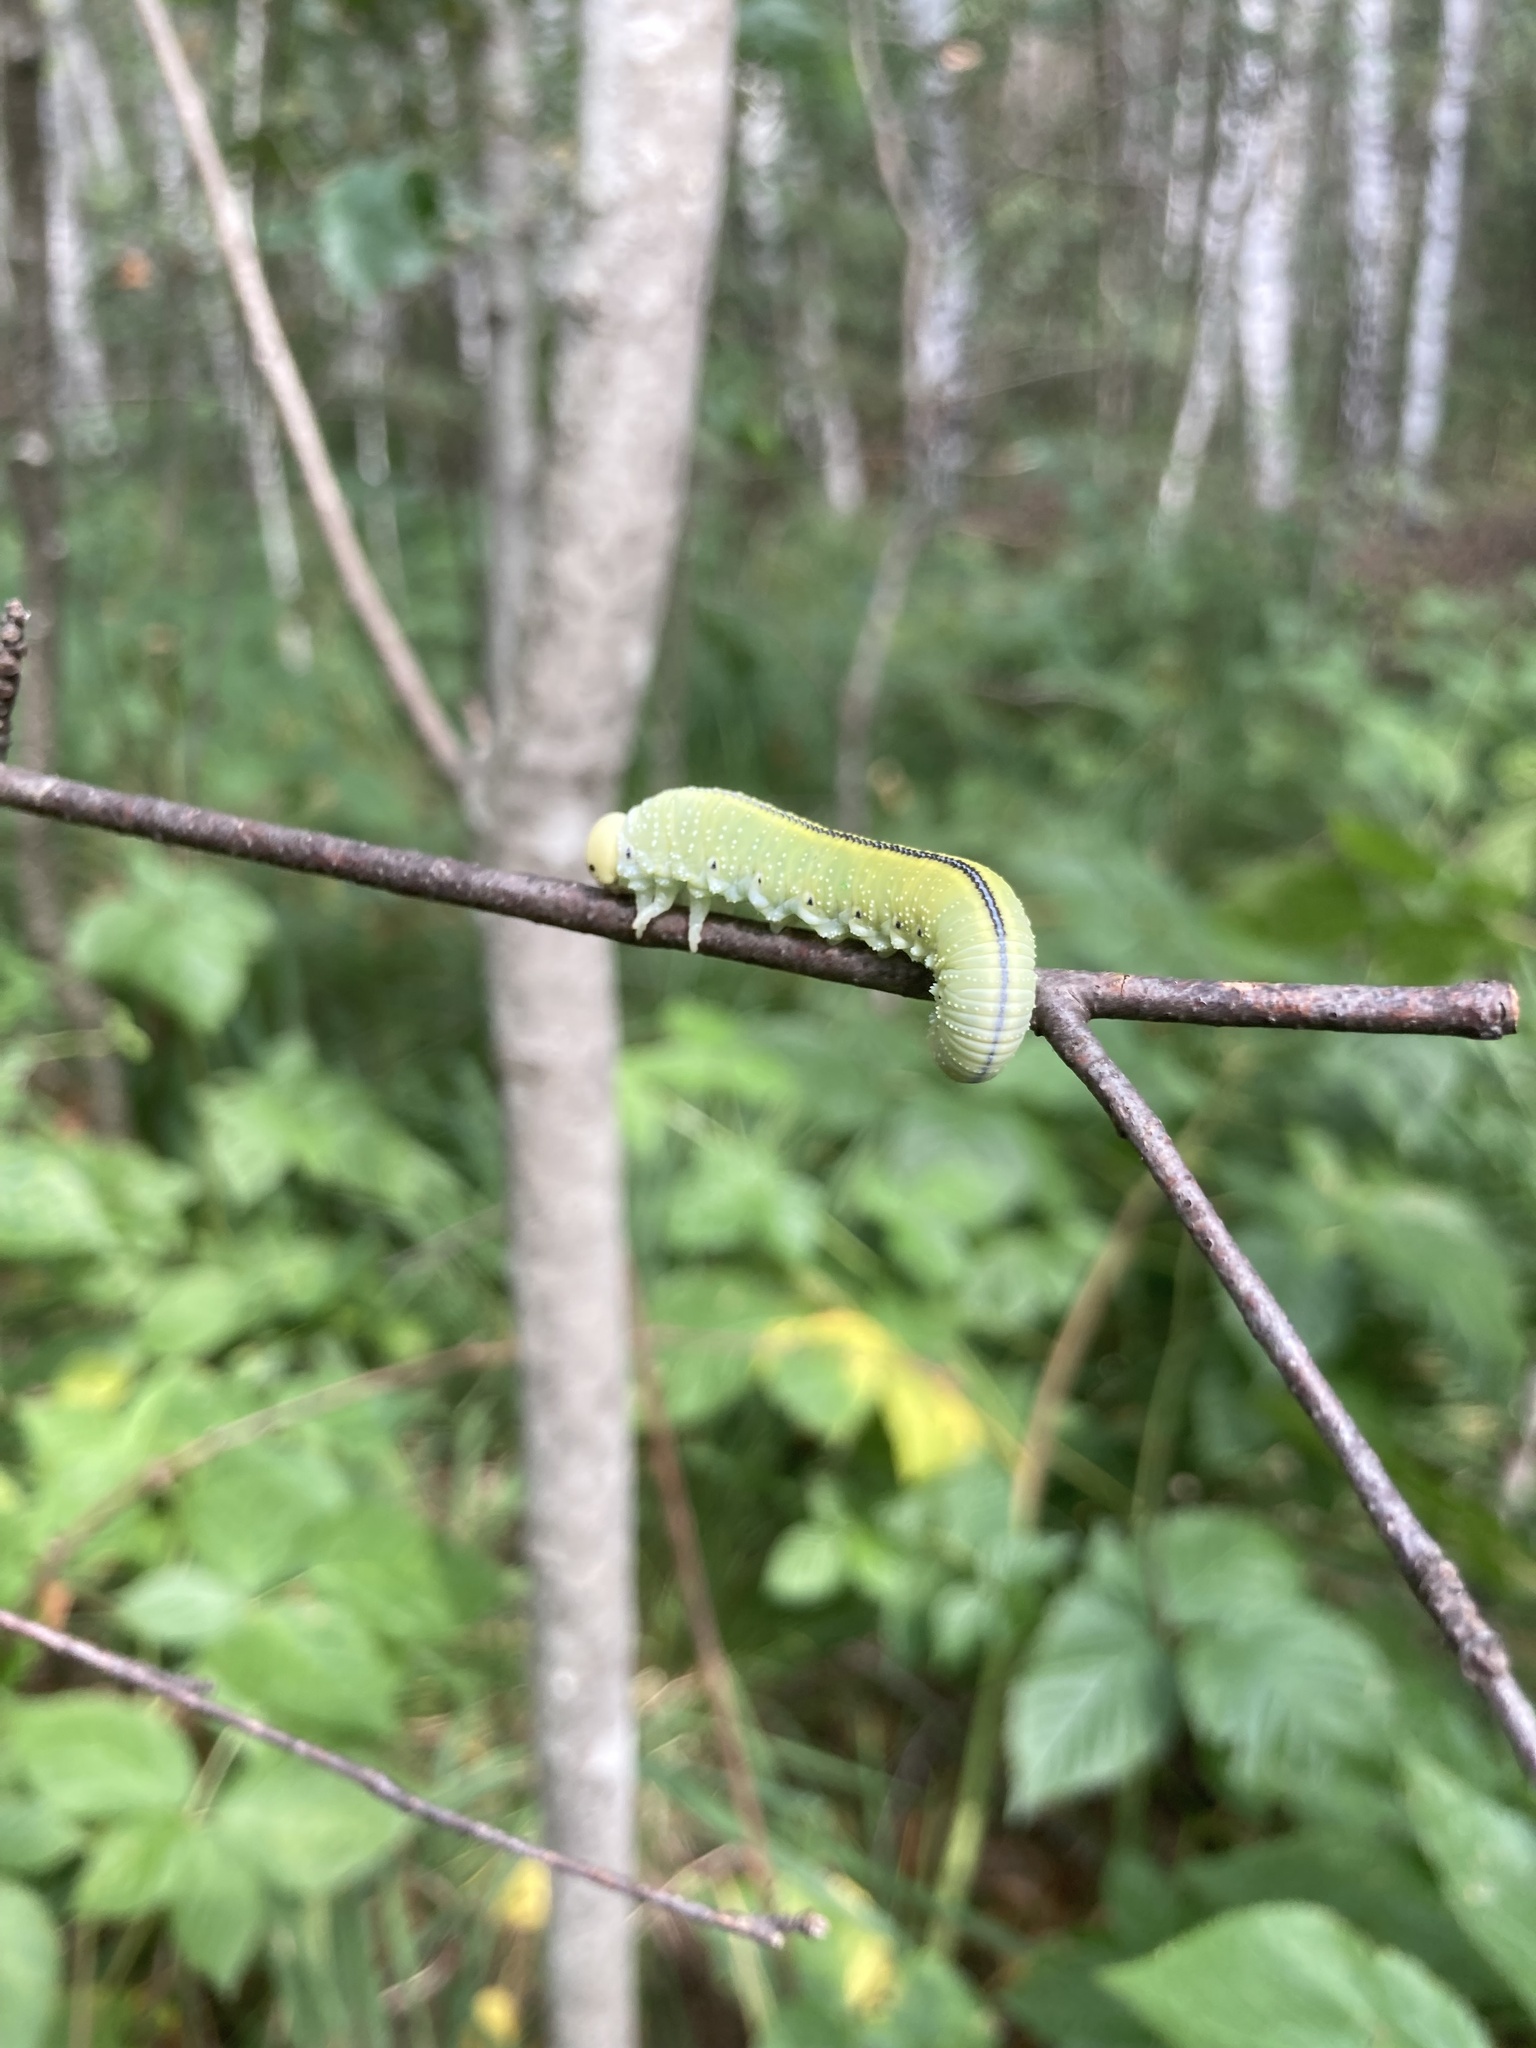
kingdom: Animalia
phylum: Arthropoda
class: Insecta
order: Hymenoptera
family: Cimbicidae
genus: Cimbex
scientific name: Cimbex femoratus
